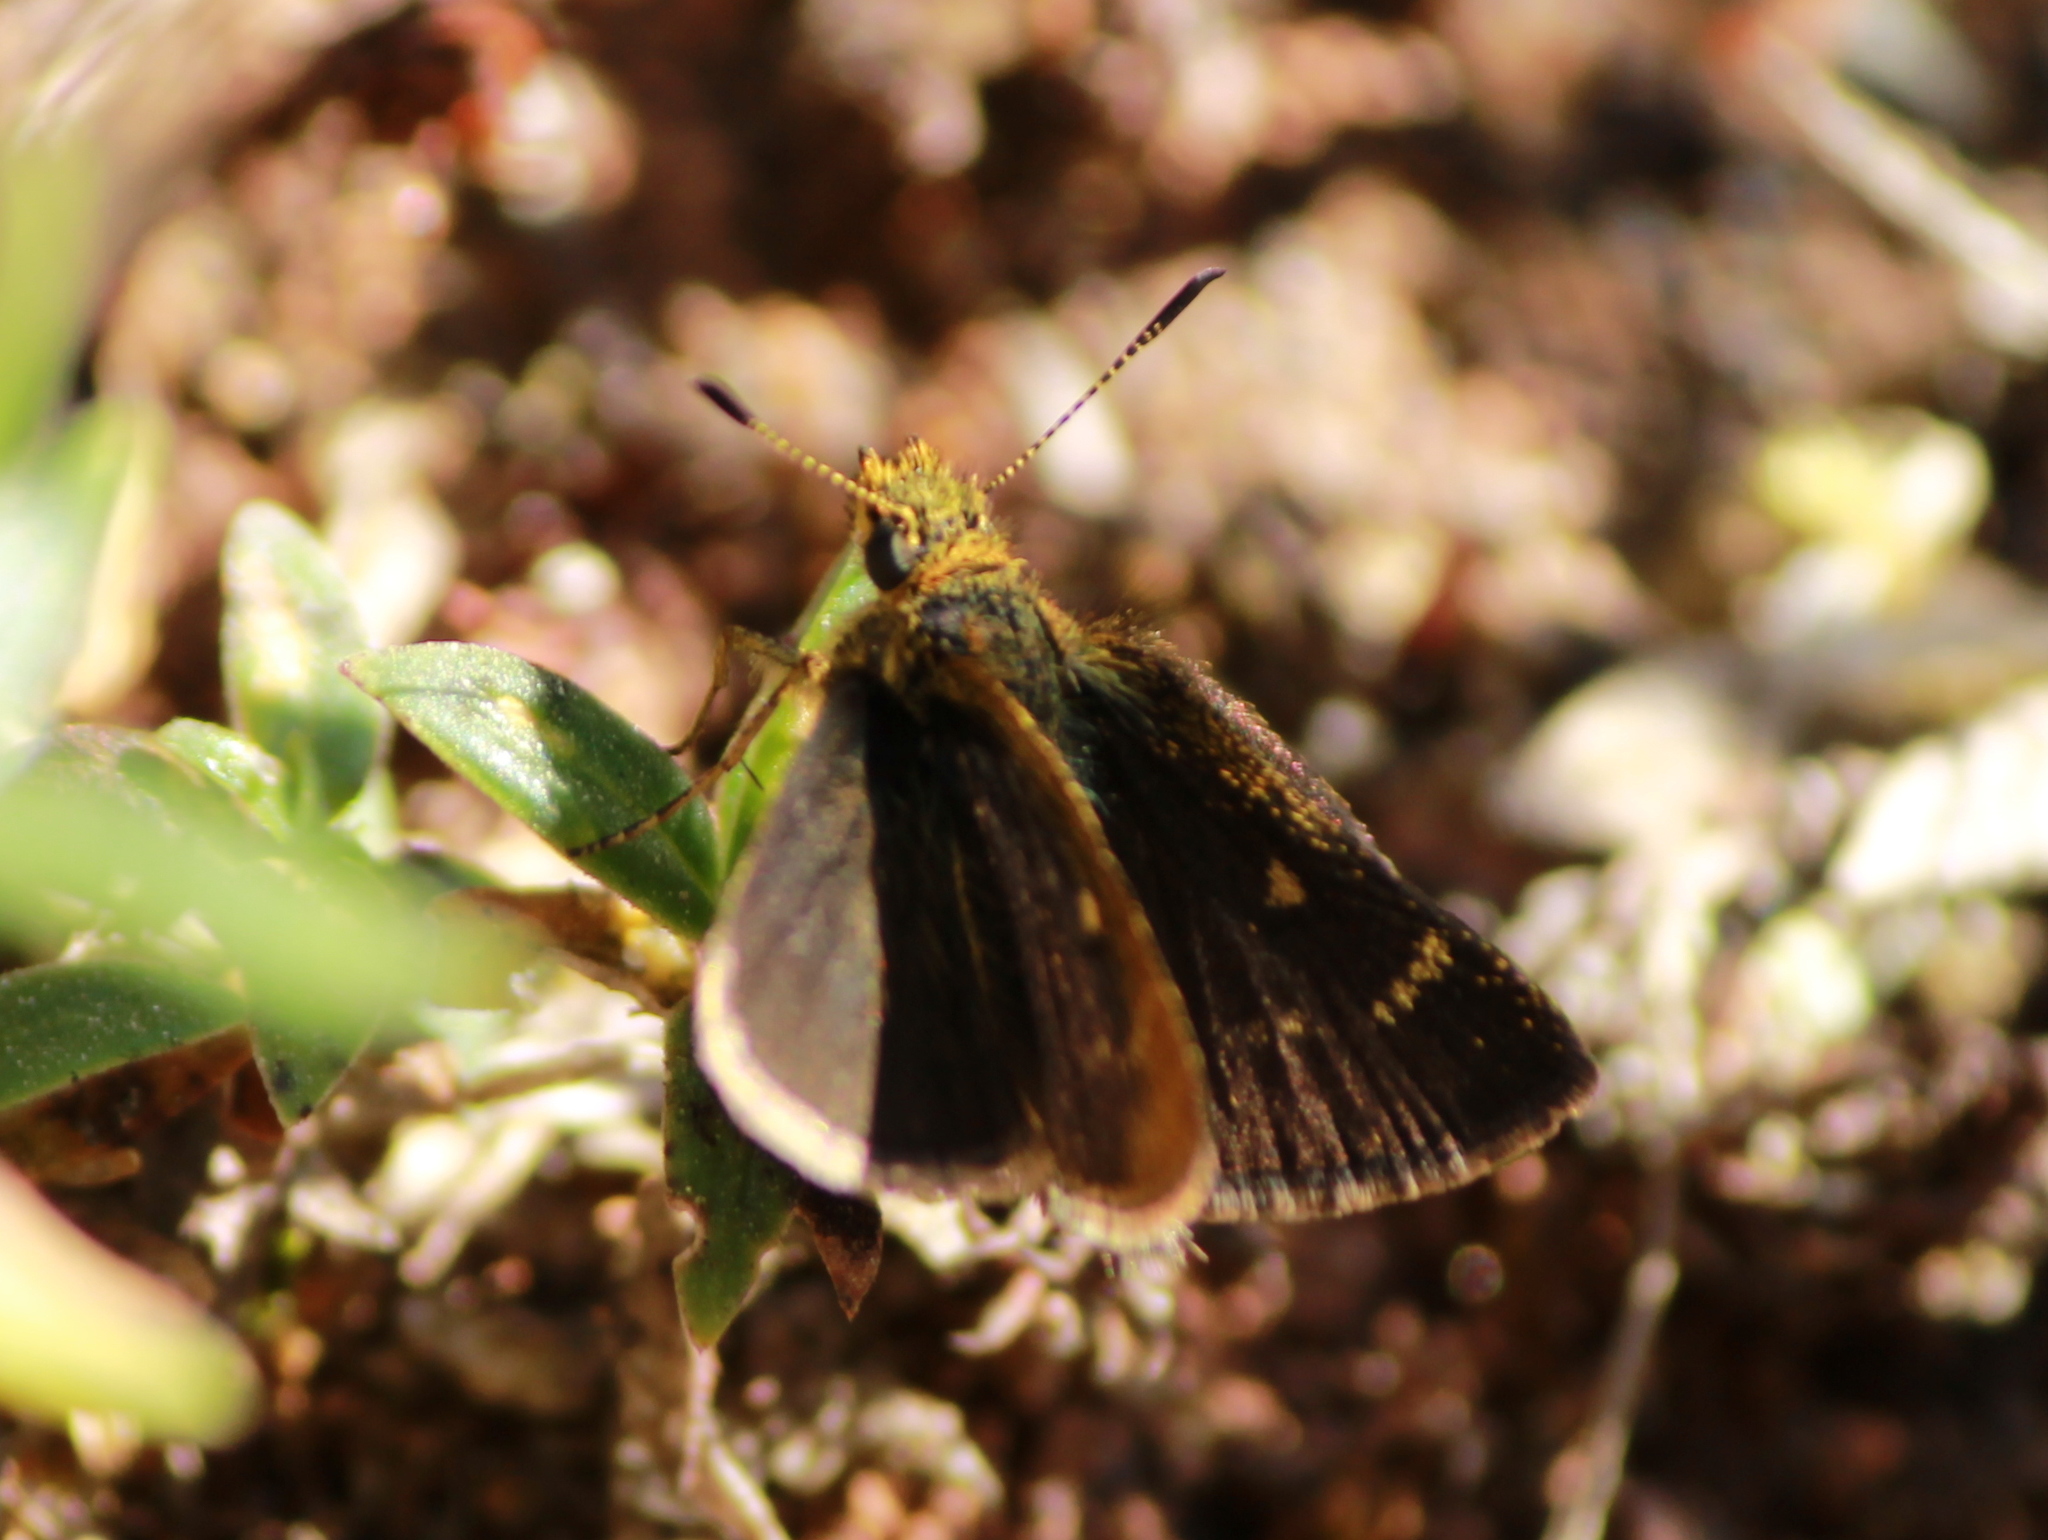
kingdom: Animalia
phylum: Arthropoda
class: Insecta
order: Lepidoptera
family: Hesperiidae
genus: Aeromachus
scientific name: Aeromachus dubius
